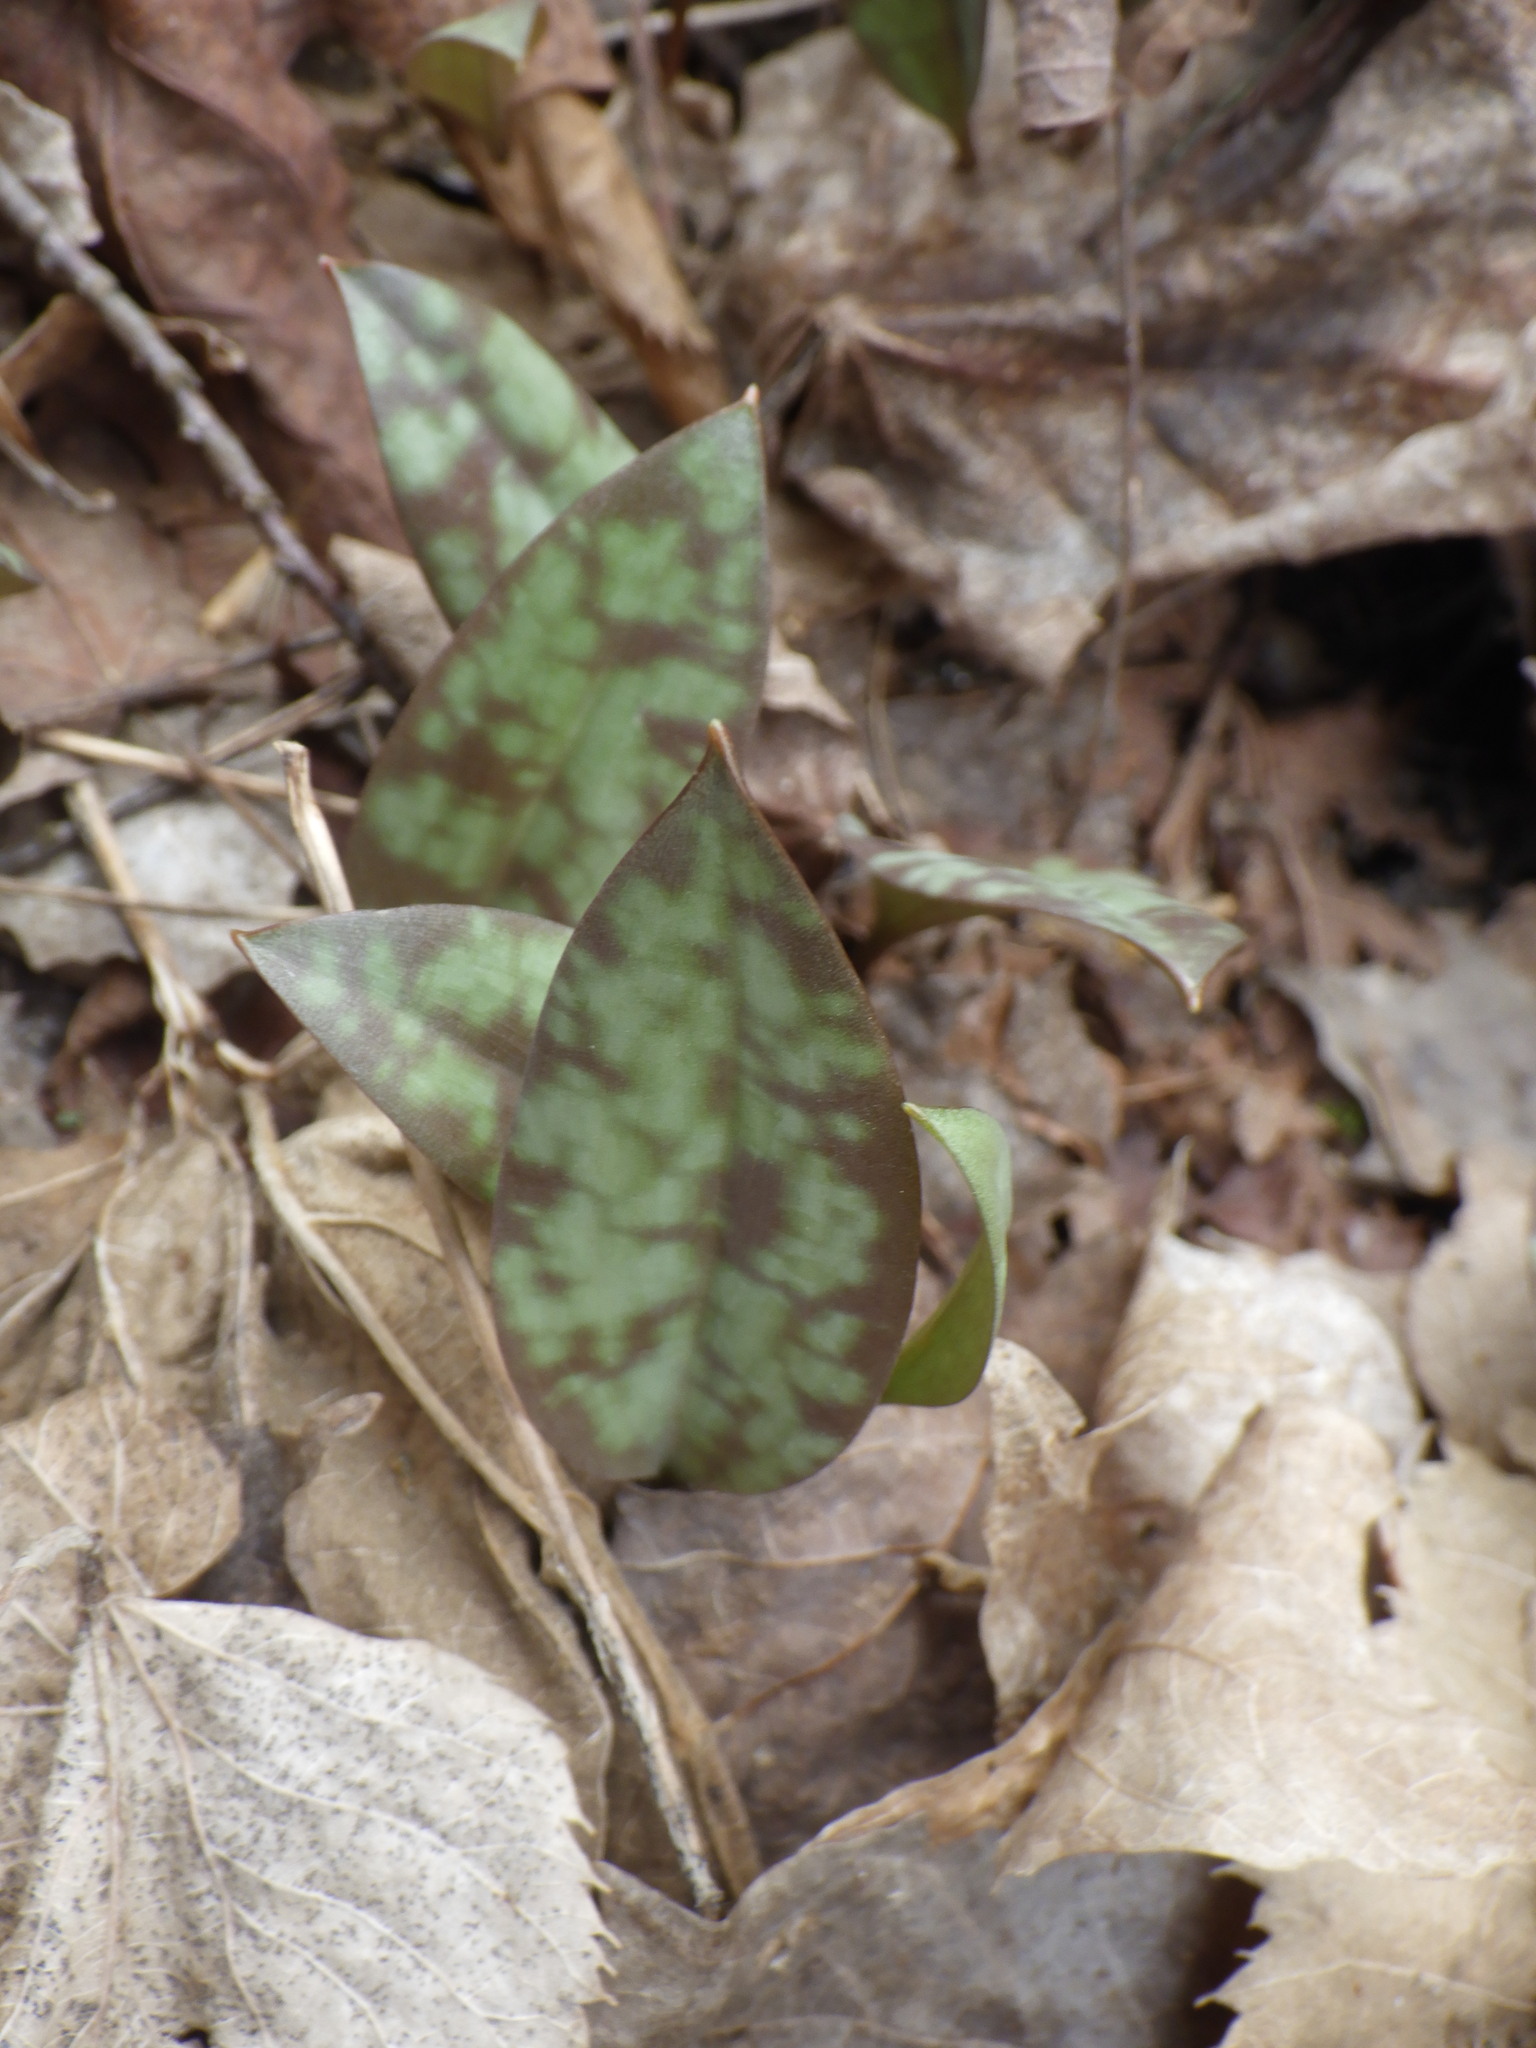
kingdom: Plantae
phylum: Tracheophyta
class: Liliopsida
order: Liliales
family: Liliaceae
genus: Erythronium
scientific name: Erythronium
